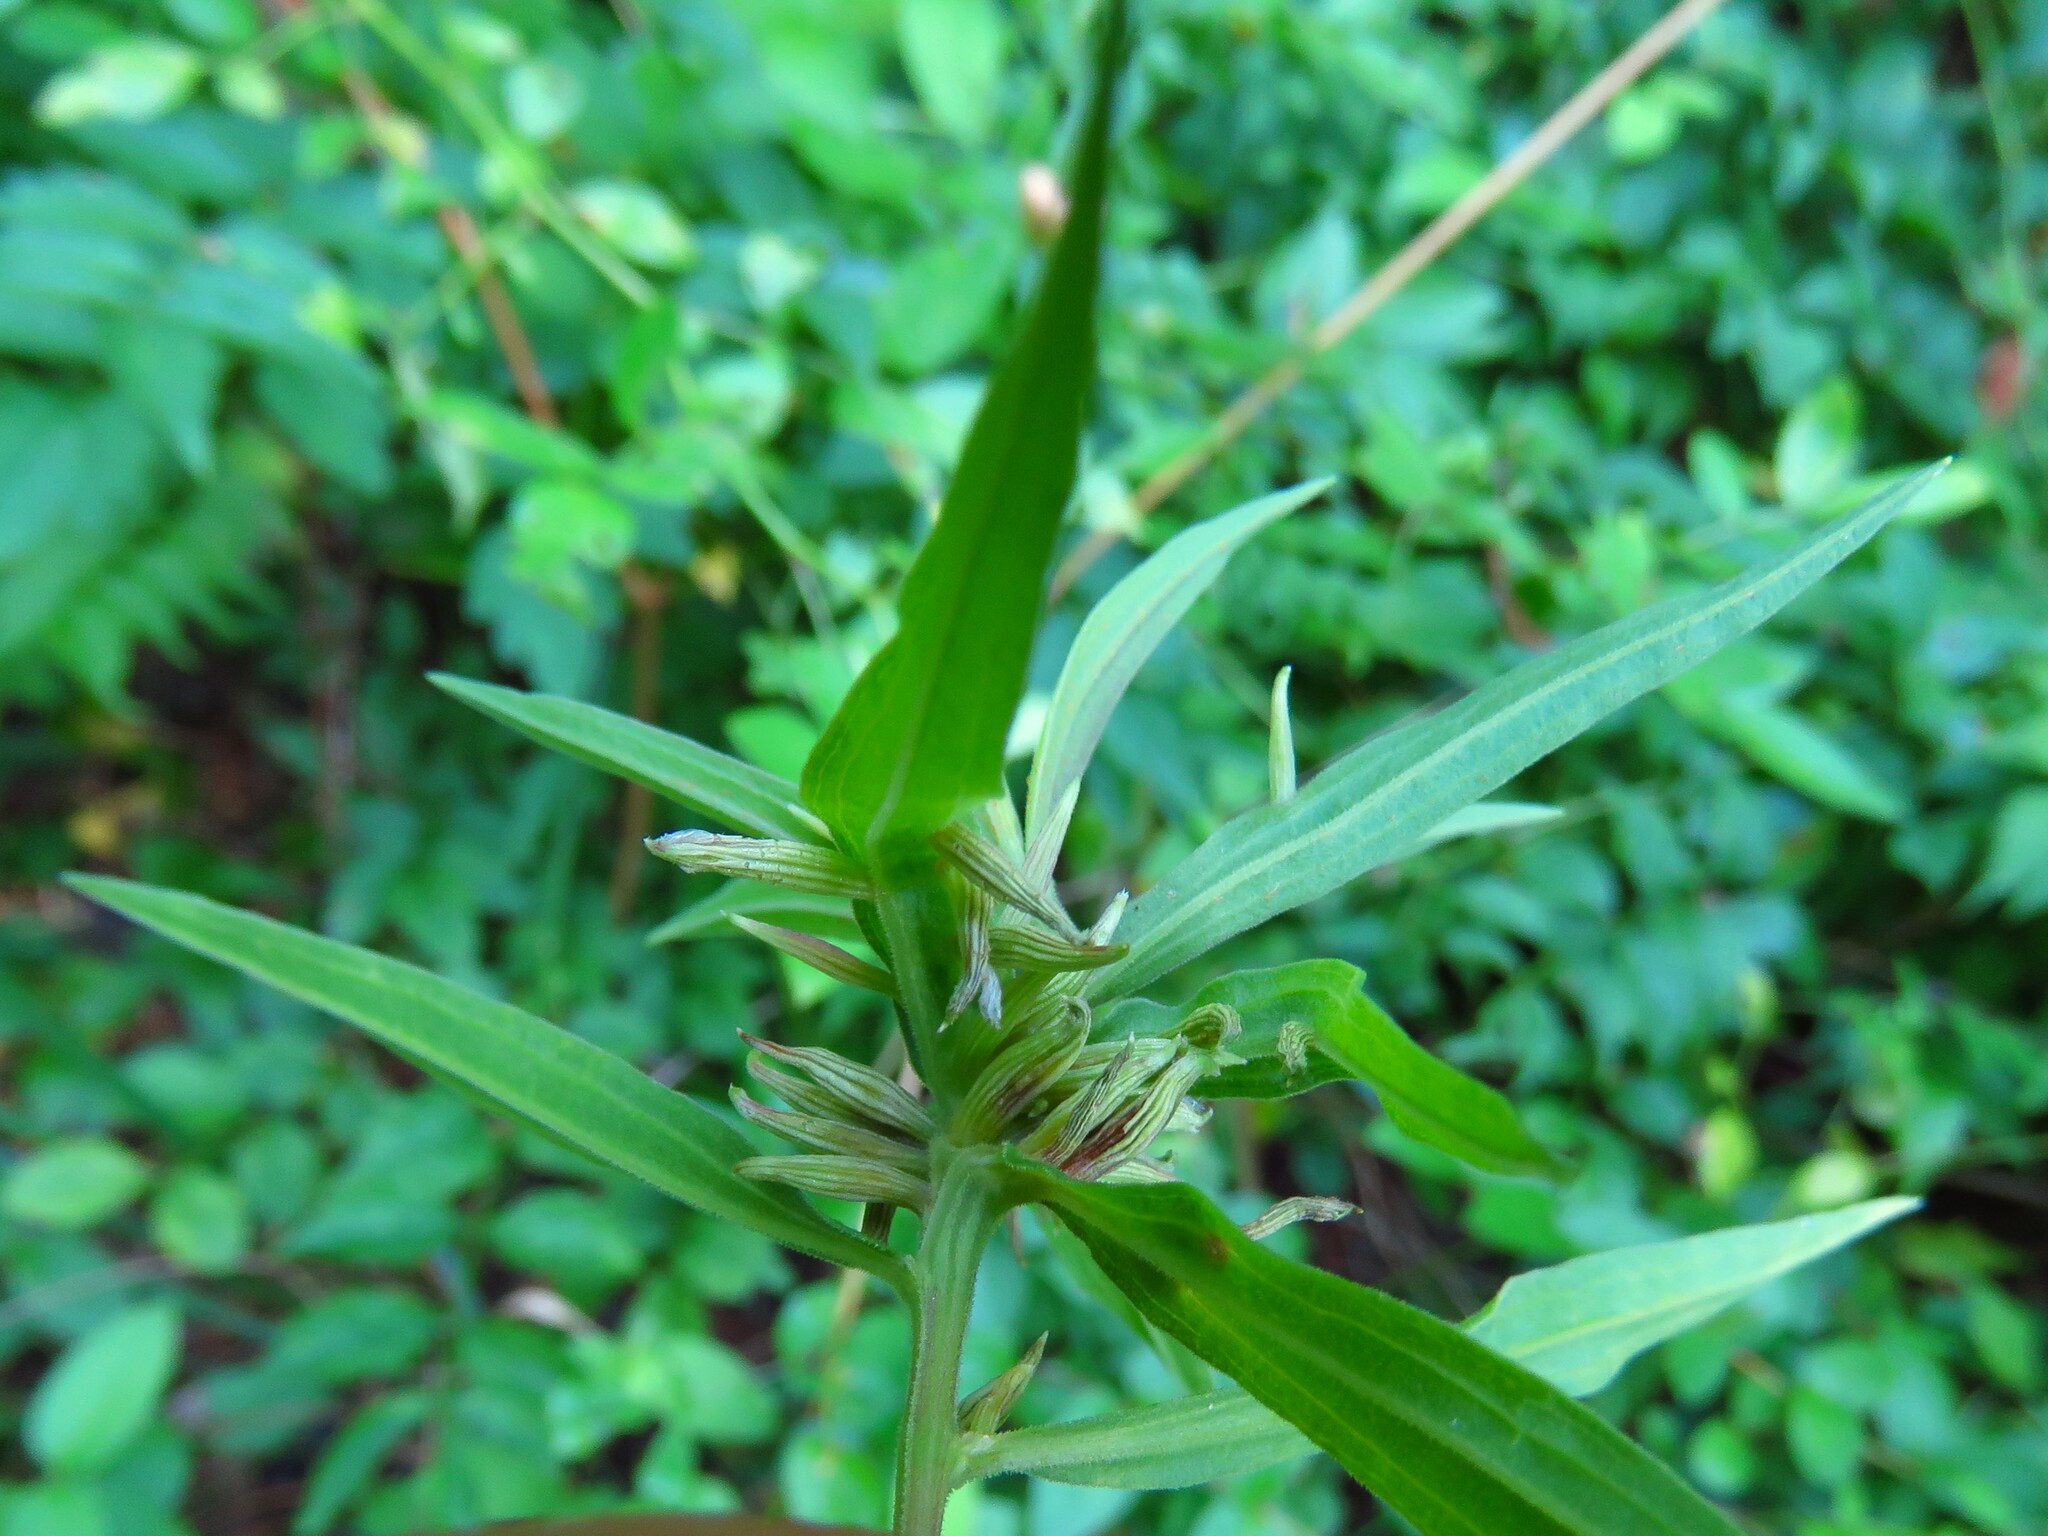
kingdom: Animalia
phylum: Arthropoda
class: Insecta
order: Diptera
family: Cecidomyiidae
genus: Rhopalomyia
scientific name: Rhopalomyia fusiformae
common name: Goldentop sessile gall midge
